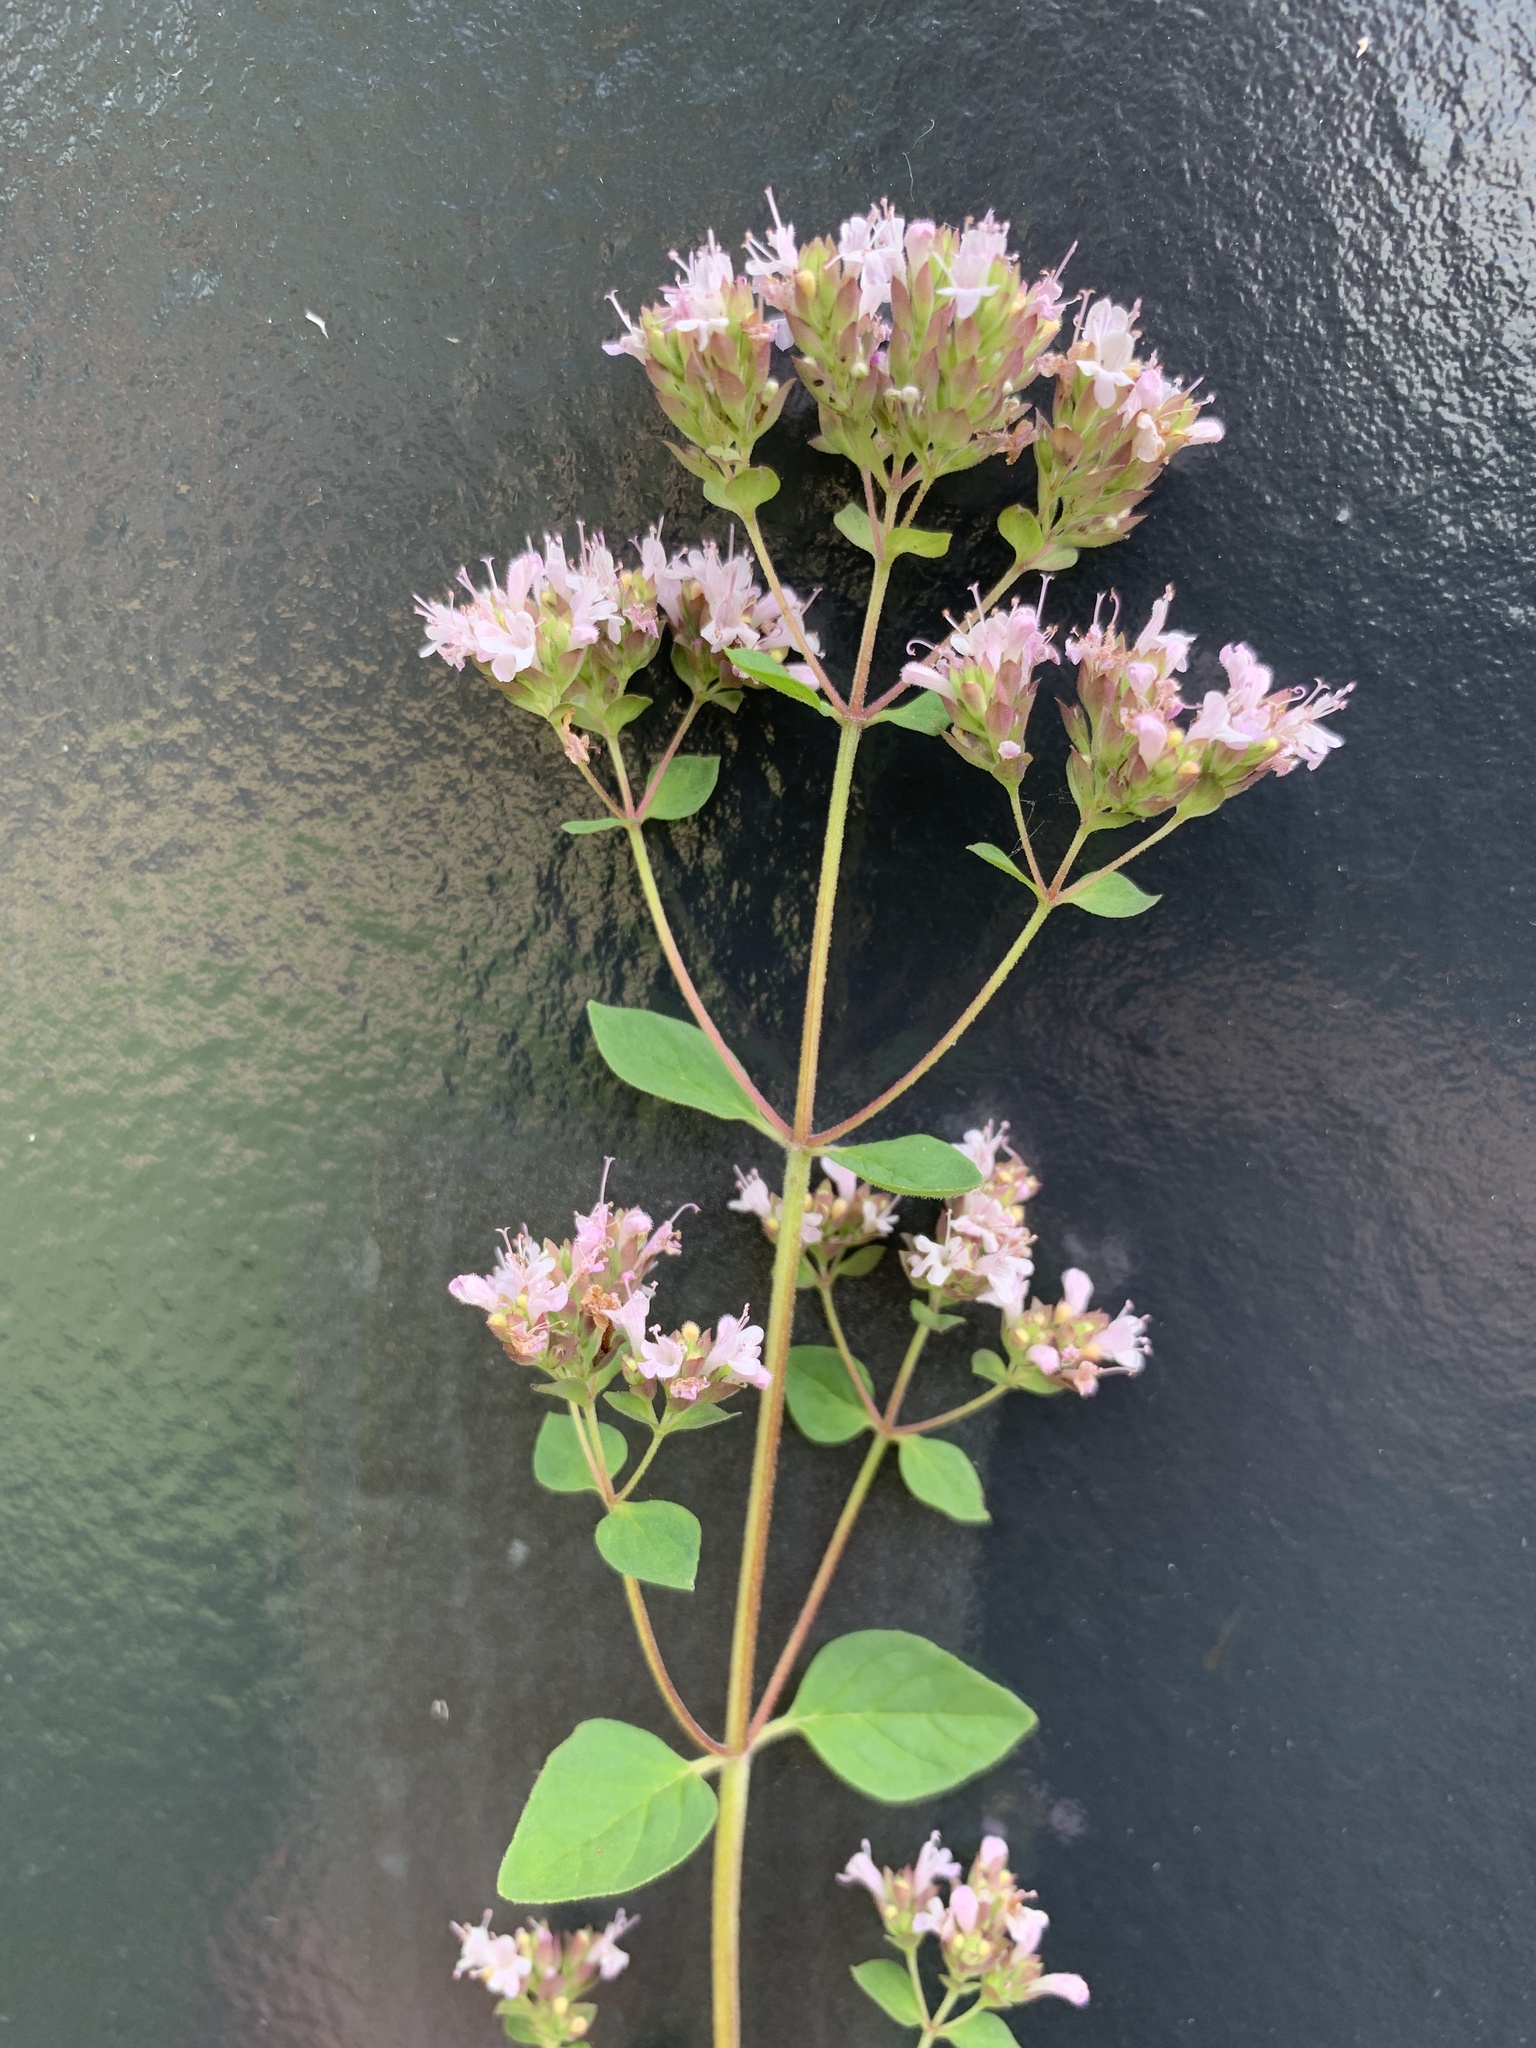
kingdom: Plantae
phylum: Tracheophyta
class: Magnoliopsida
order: Lamiales
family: Lamiaceae
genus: Origanum
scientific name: Origanum vulgare
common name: Wild marjoram
